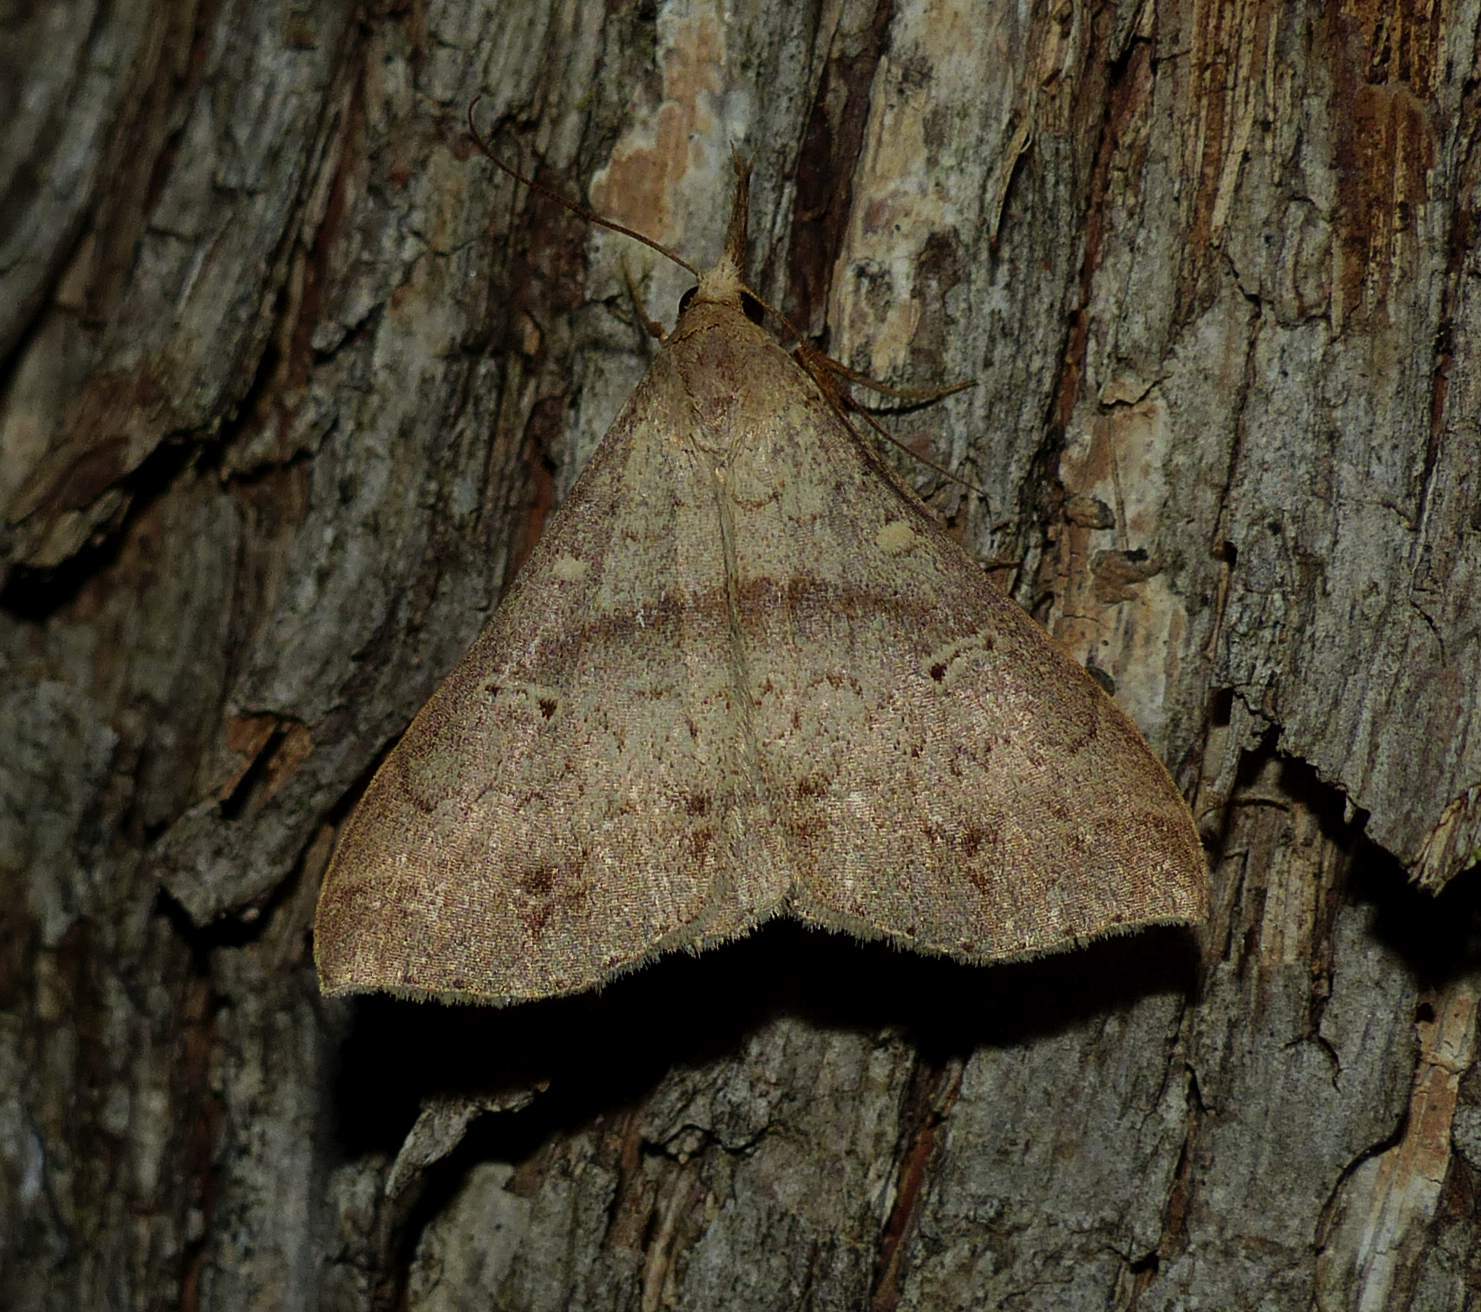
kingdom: Animalia
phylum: Arthropoda
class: Insecta
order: Lepidoptera
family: Erebidae
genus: Renia
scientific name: Renia discoloralis
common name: Discolored renia moth
